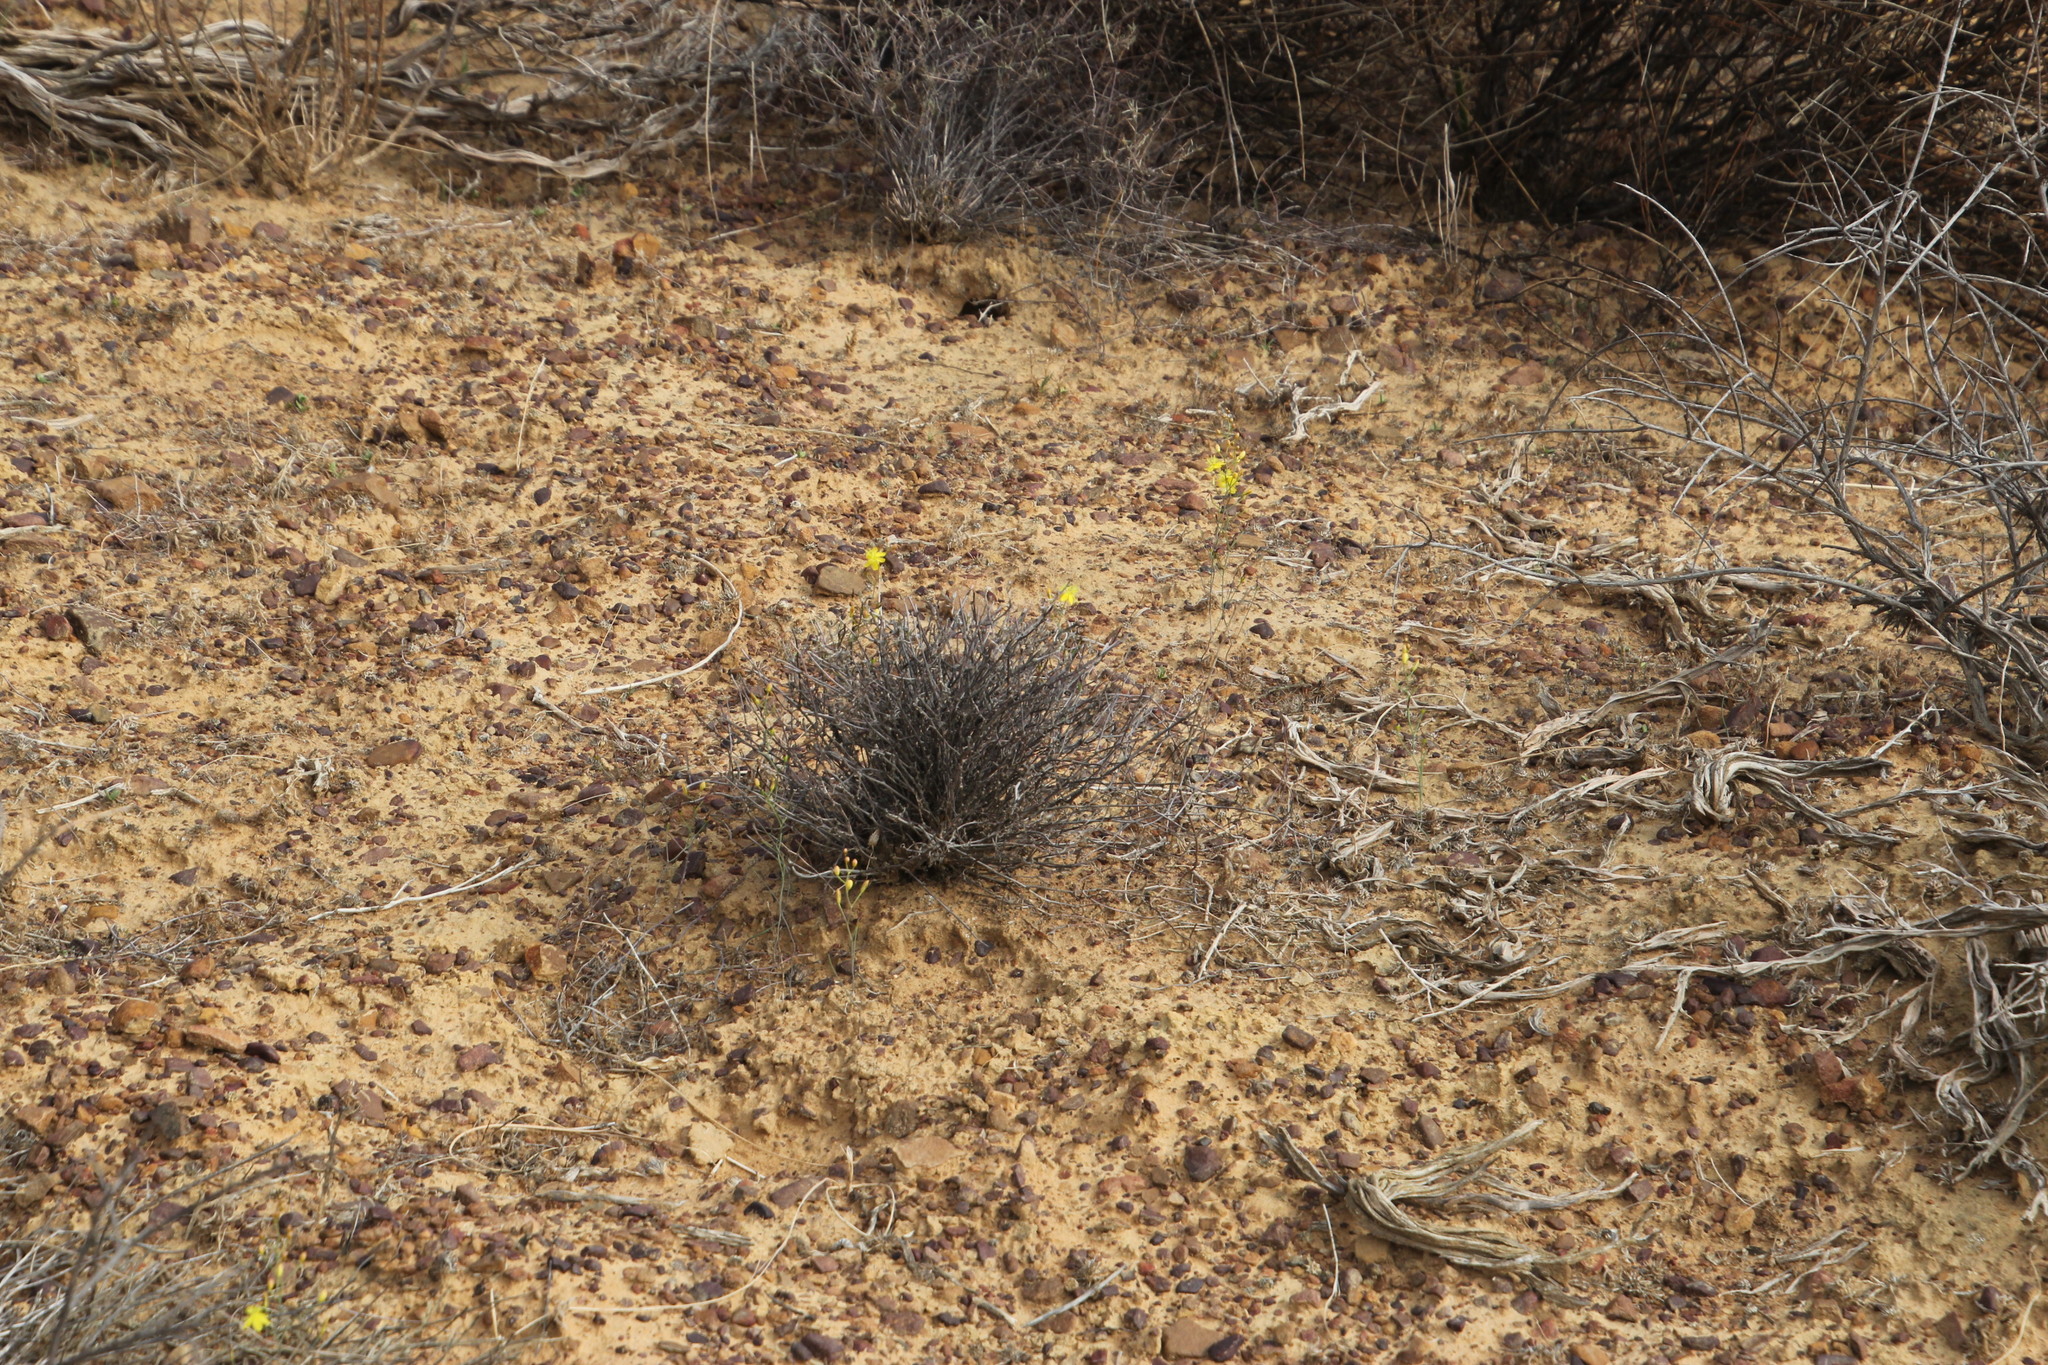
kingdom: Plantae
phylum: Tracheophyta
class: Liliopsida
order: Asparagales
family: Asphodelaceae
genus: Bulbine
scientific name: Bulbine flexuosa
